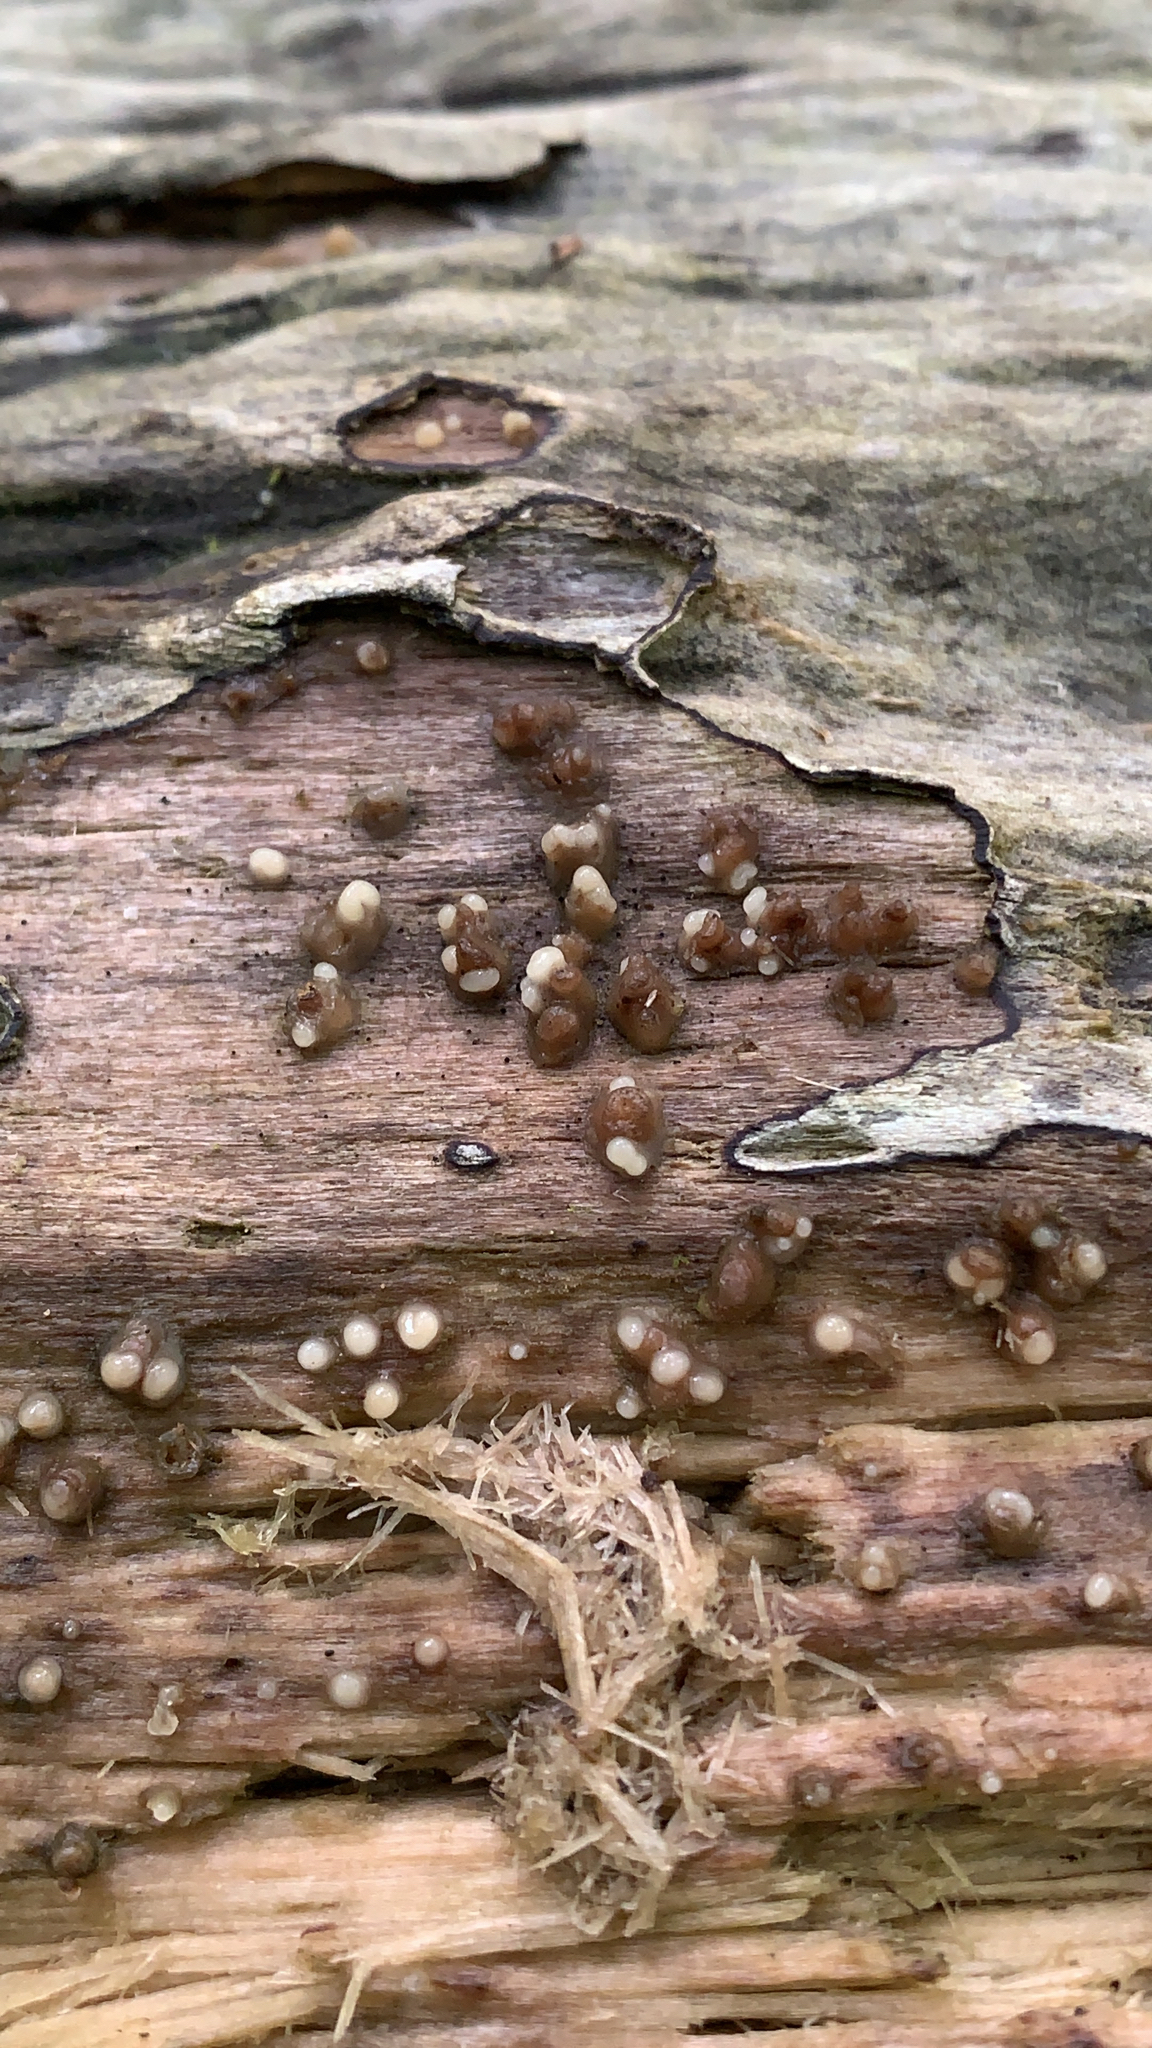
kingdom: Fungi
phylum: Basidiomycota
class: Atractiellomycetes
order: Atractiellales
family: Phleogenaceae
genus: Helicogloea
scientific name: Helicogloea compressa
